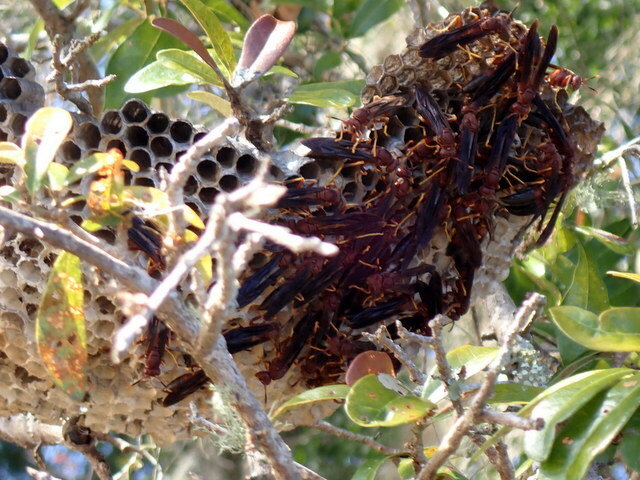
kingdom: Animalia
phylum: Arthropoda
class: Insecta
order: Hymenoptera
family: Eumenidae
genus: Polistes
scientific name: Polistes annularis
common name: Ringed paper wasp
